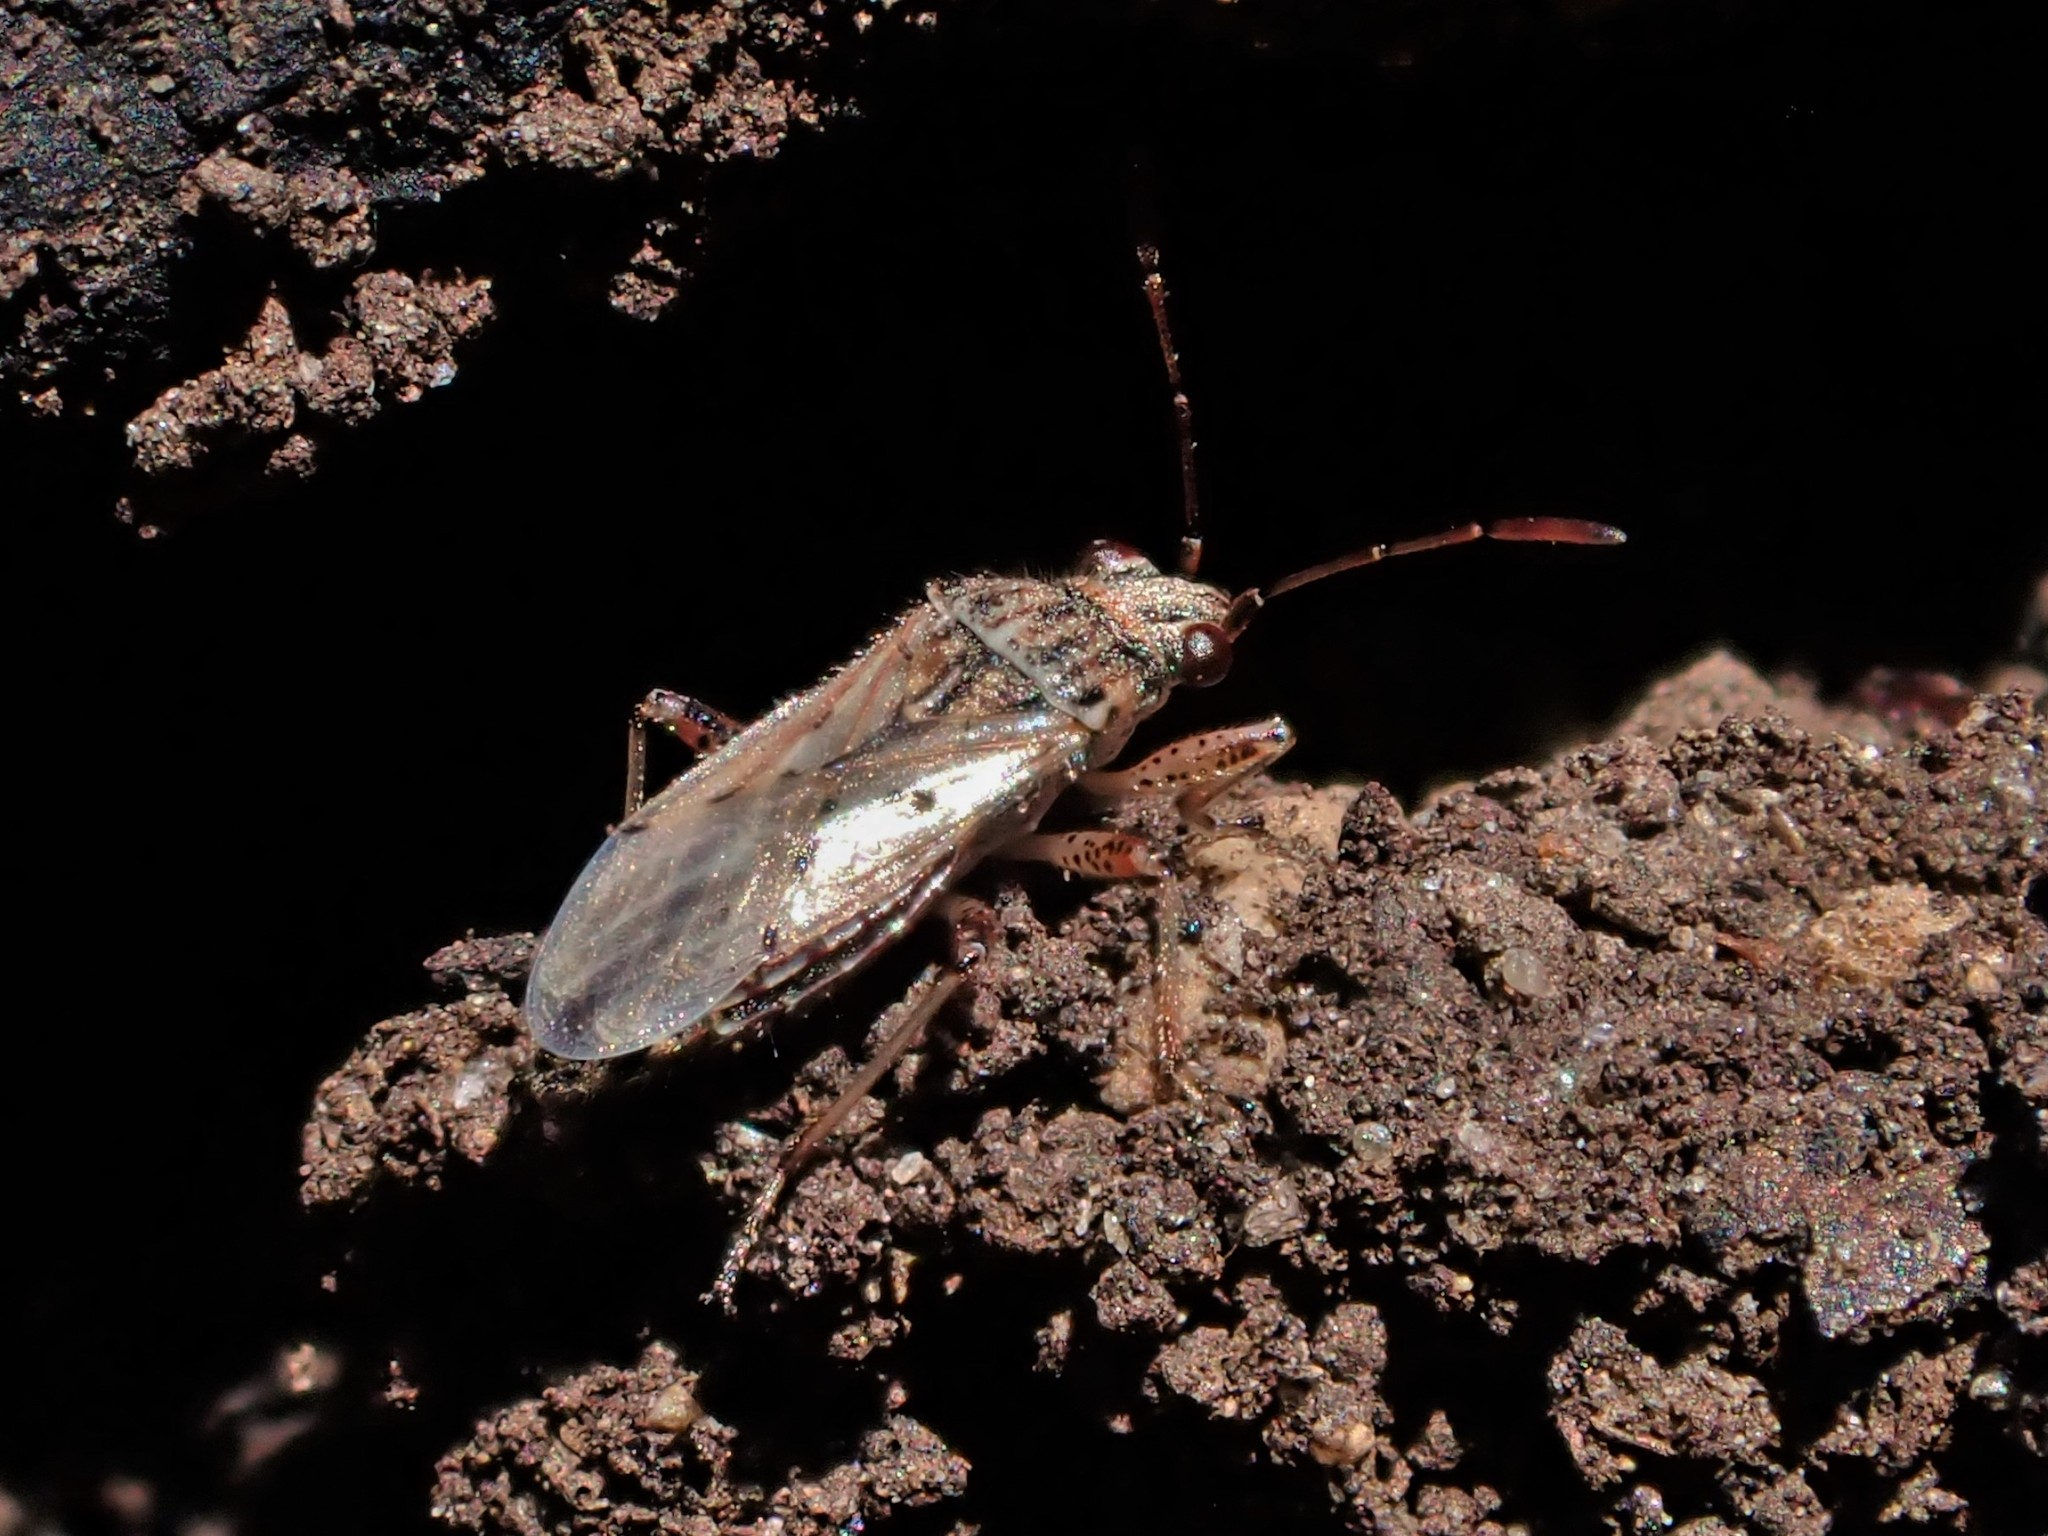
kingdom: Animalia
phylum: Arthropoda
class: Insecta
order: Hemiptera
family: Lygaeidae
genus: Nysius
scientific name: Nysius caledoniae
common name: Lygaeid bug
